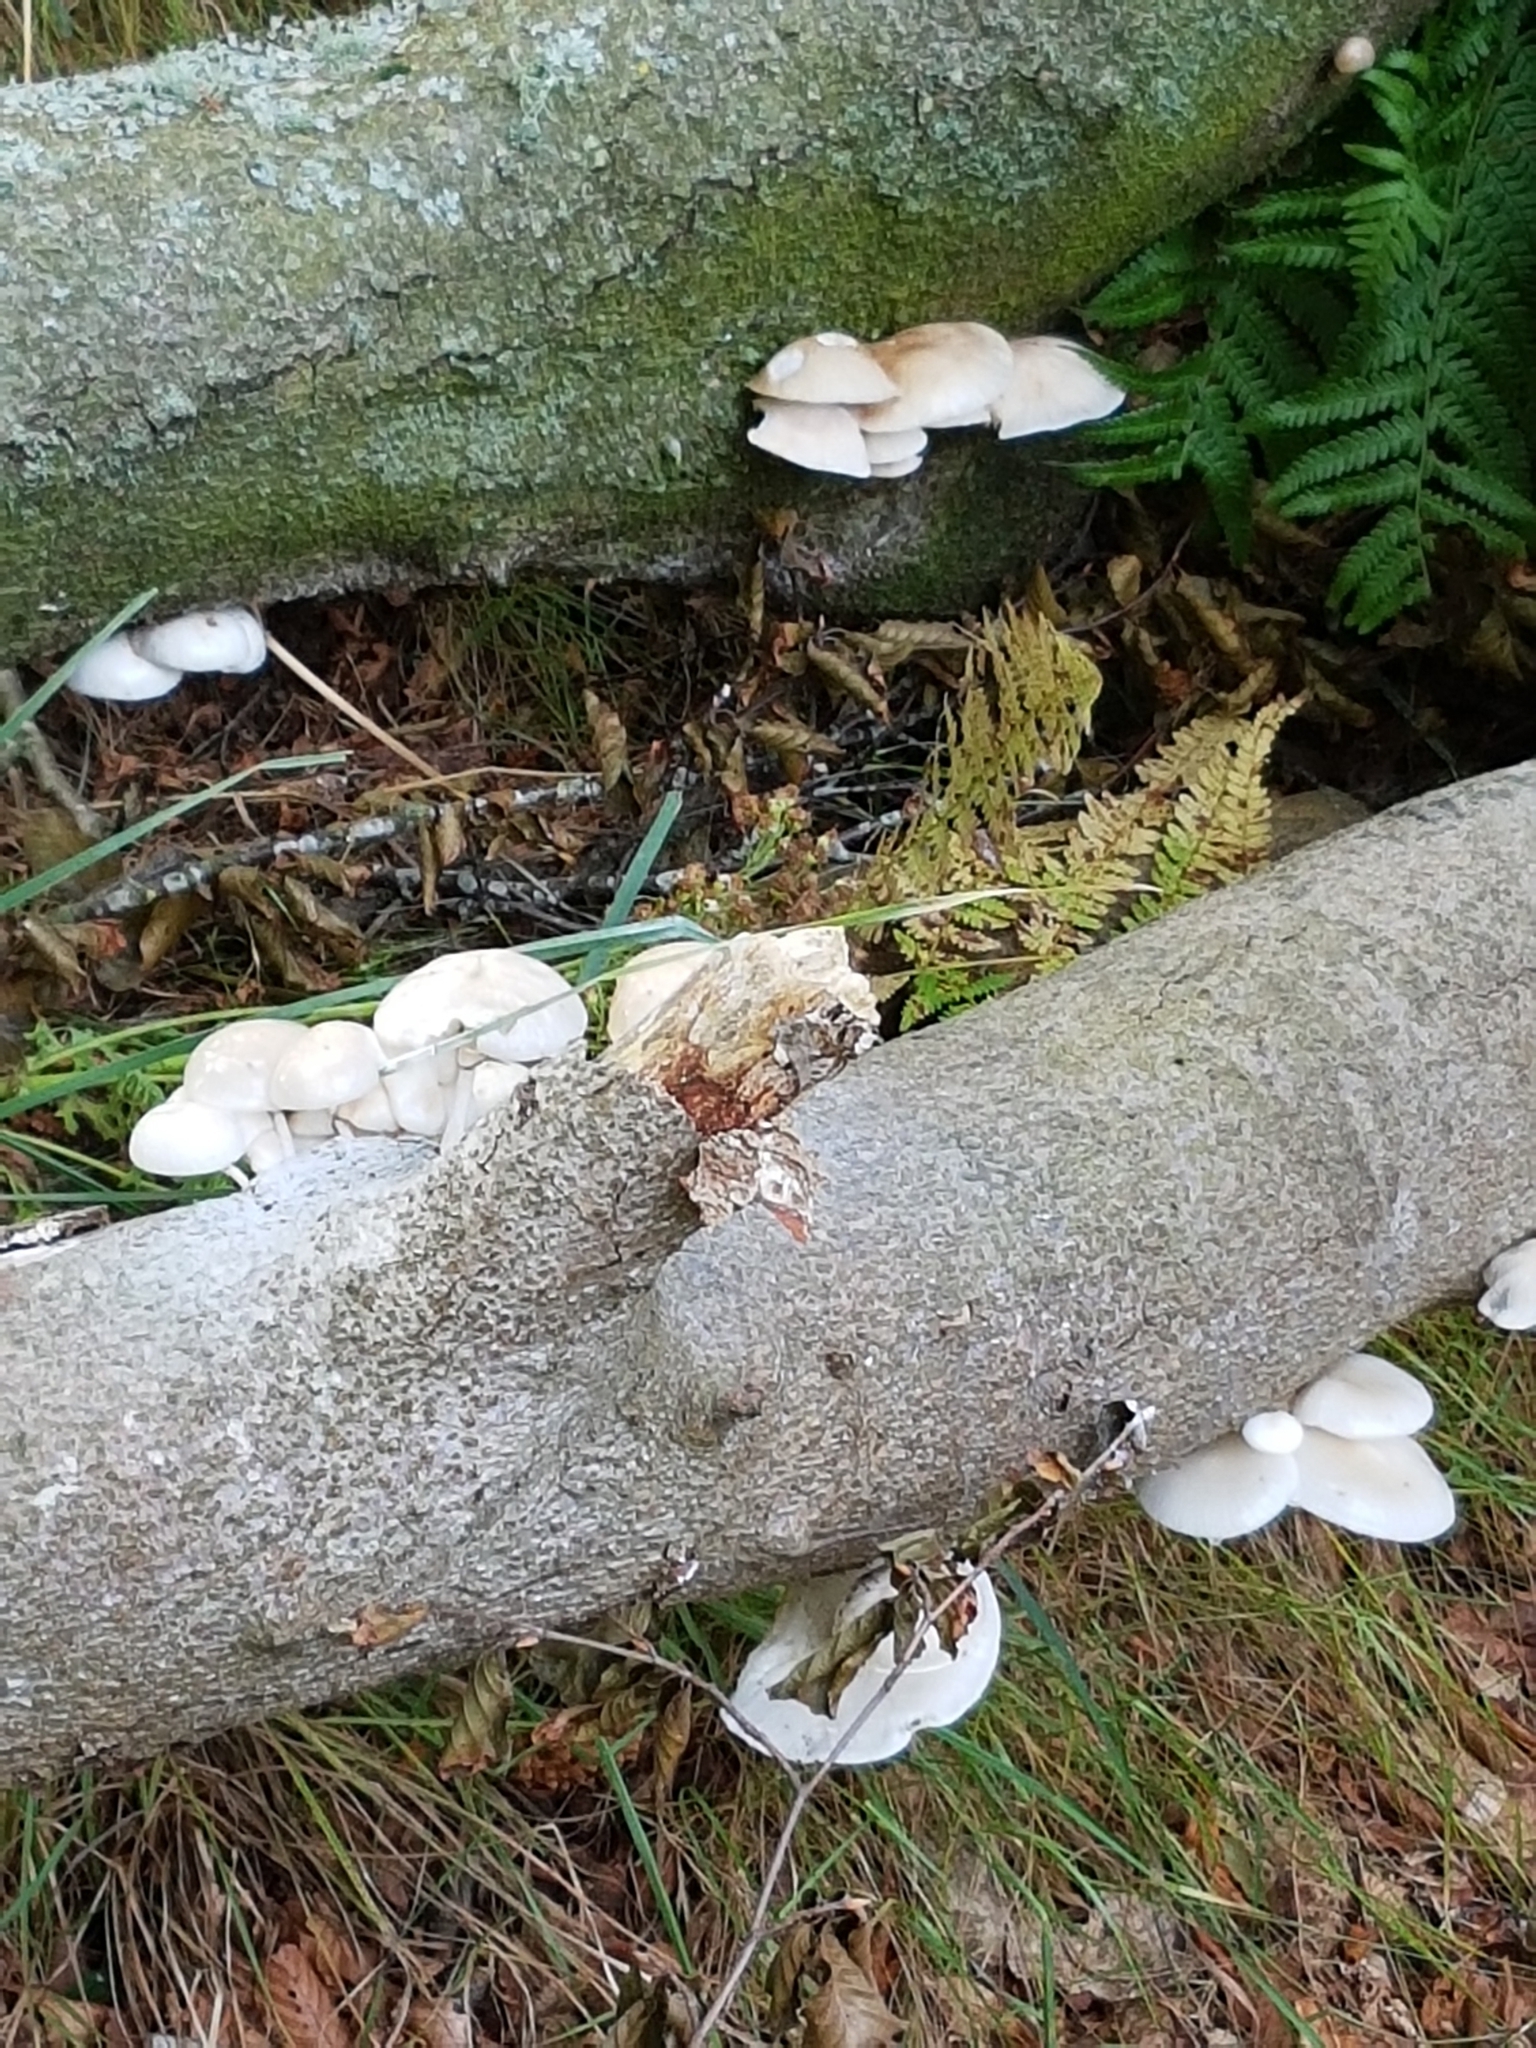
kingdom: Fungi
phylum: Basidiomycota
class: Agaricomycetes
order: Agaricales
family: Physalacriaceae
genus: Mucidula
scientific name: Mucidula mucida
